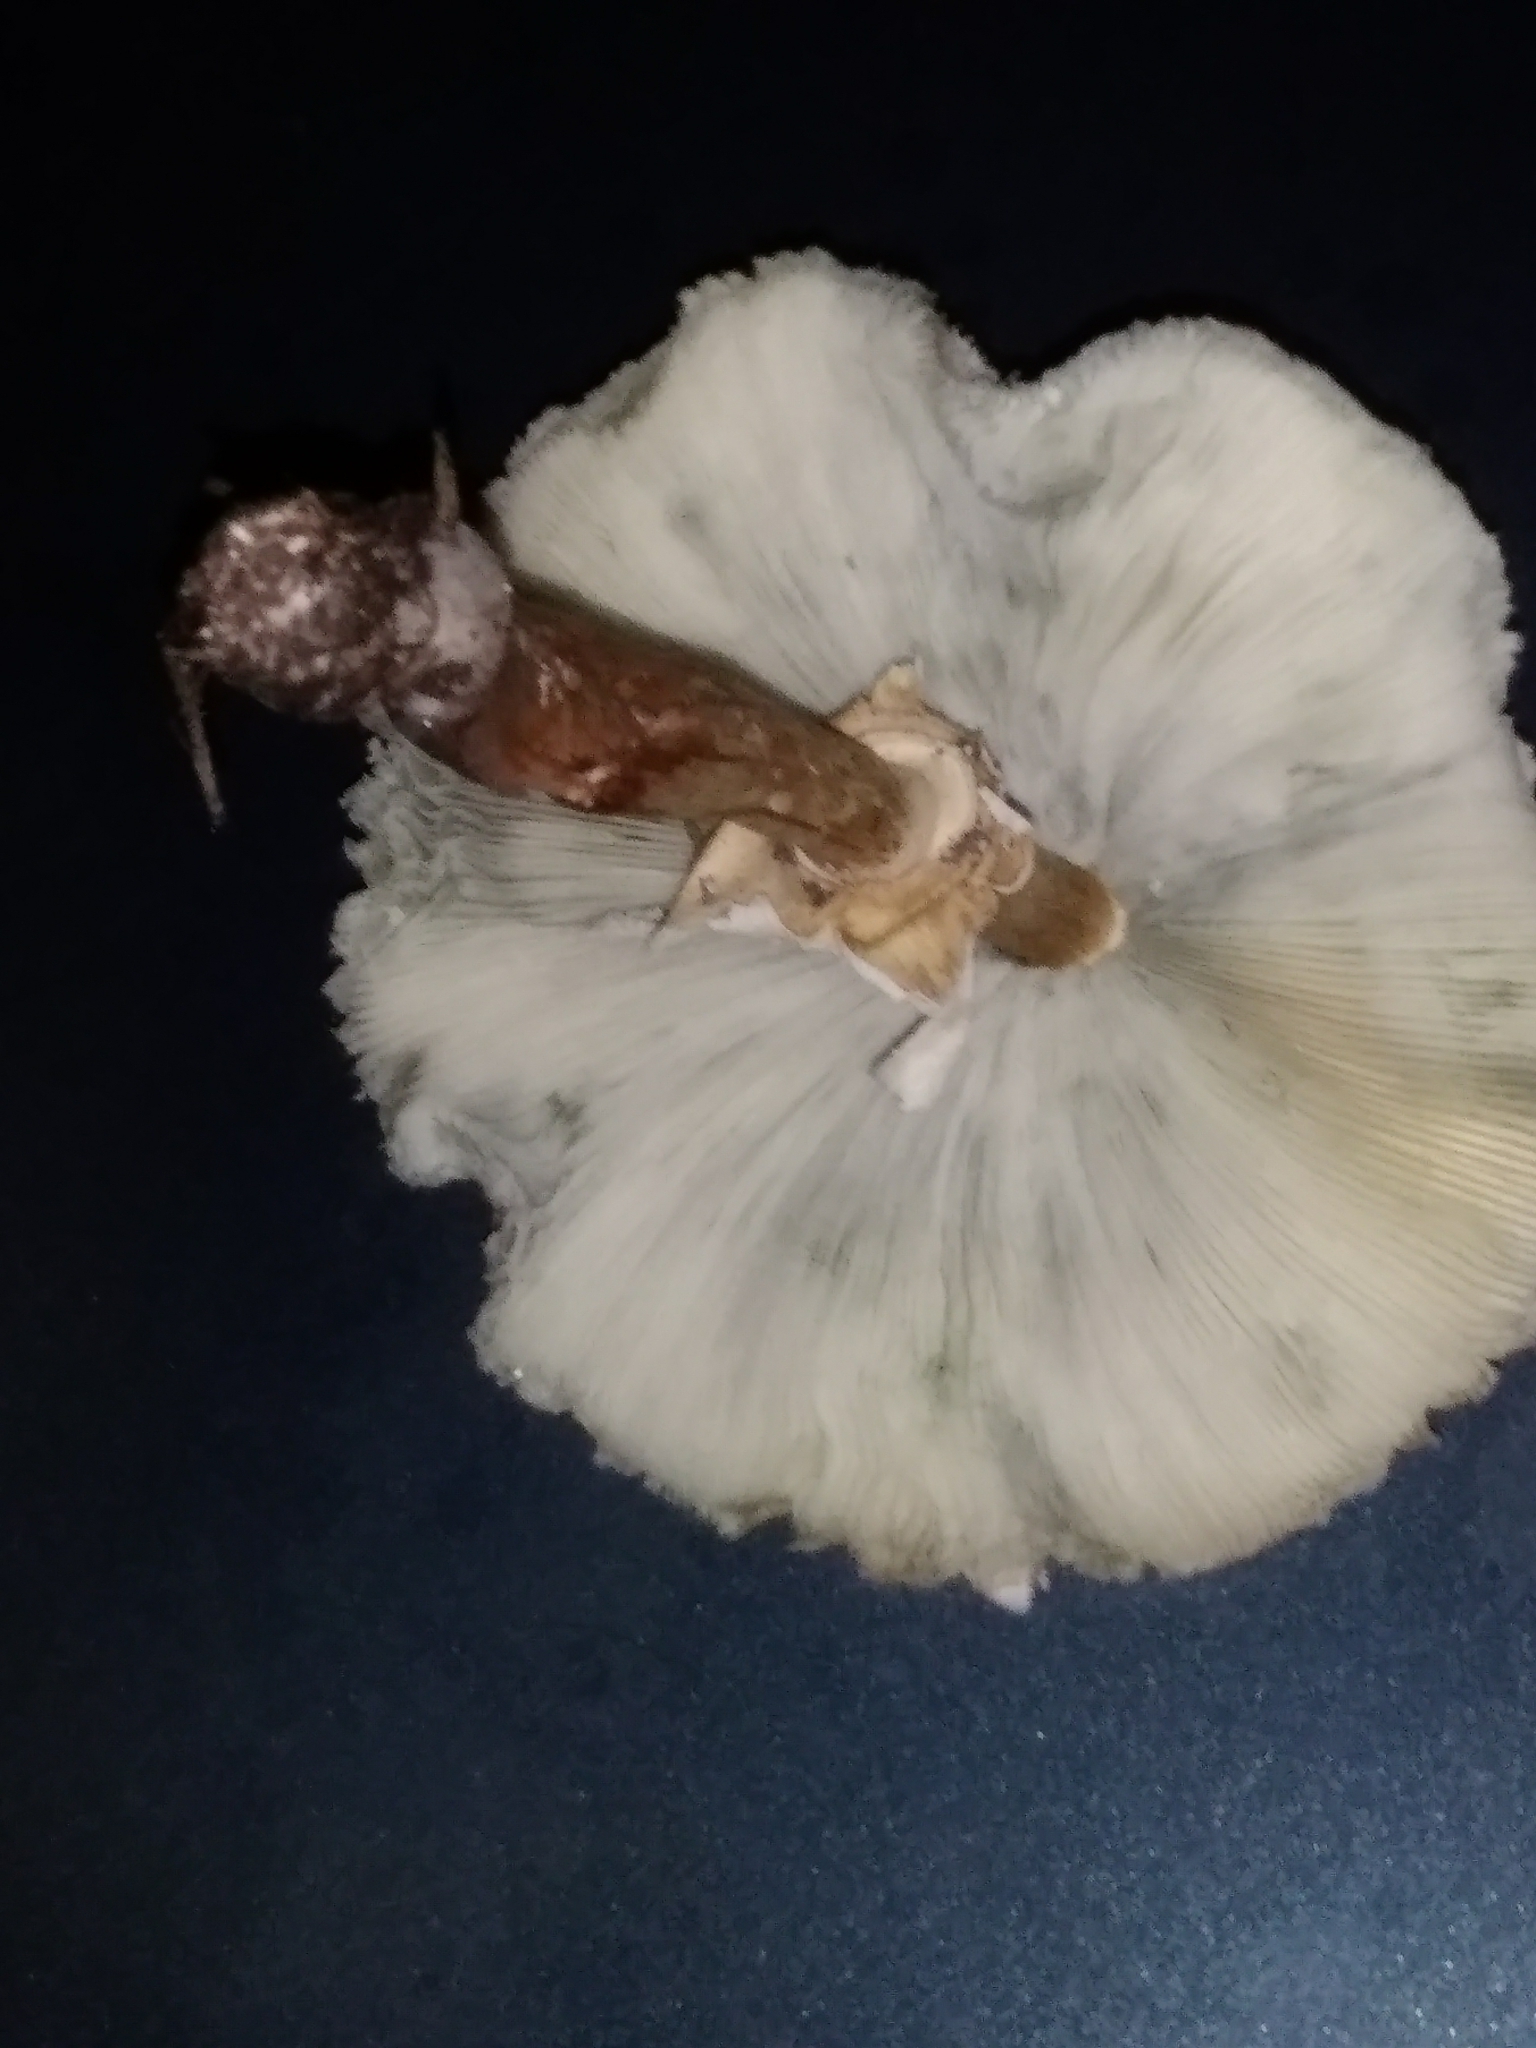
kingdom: Fungi
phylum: Basidiomycota
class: Agaricomycetes
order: Agaricales
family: Agaricaceae
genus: Chlorophyllum
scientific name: Chlorophyllum molybdites
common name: False parasol
